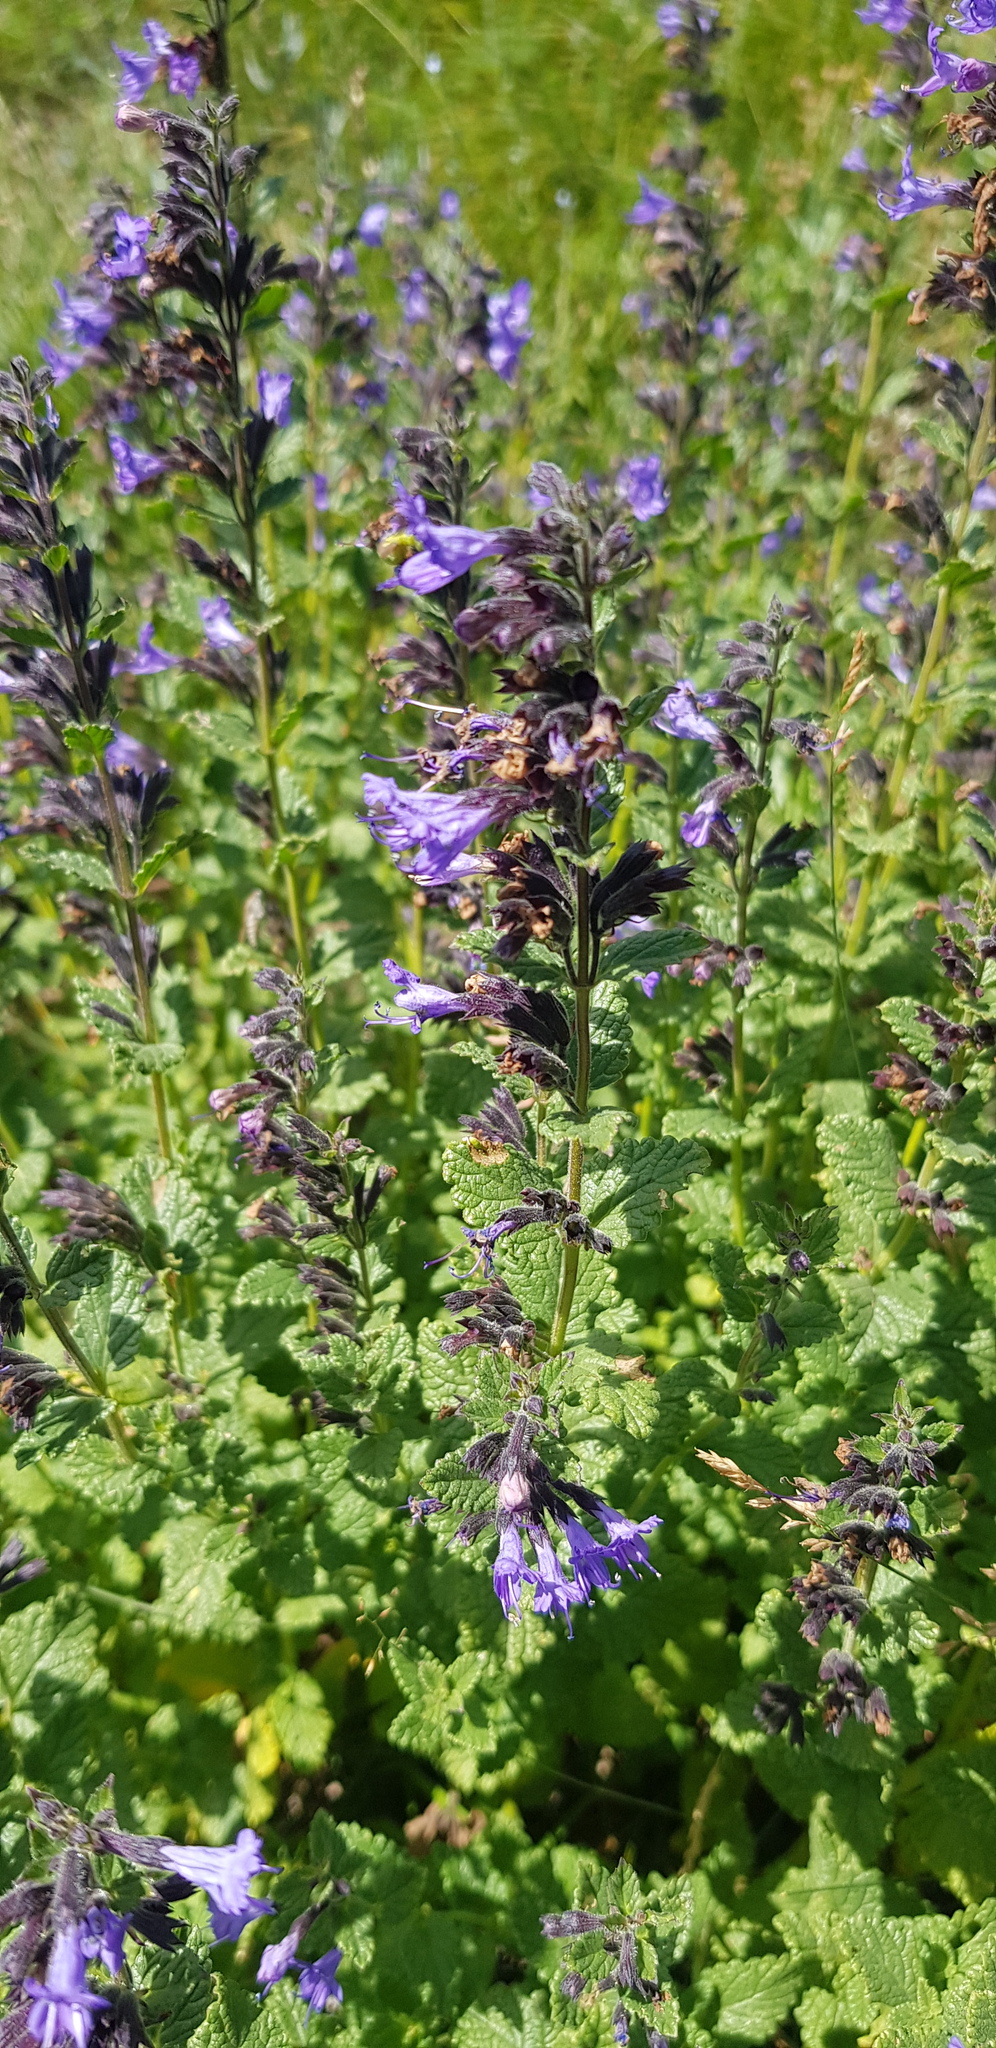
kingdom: Plantae
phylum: Tracheophyta
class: Magnoliopsida
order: Lamiales
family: Lamiaceae
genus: Nepeta
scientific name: Nepeta lophanthus
